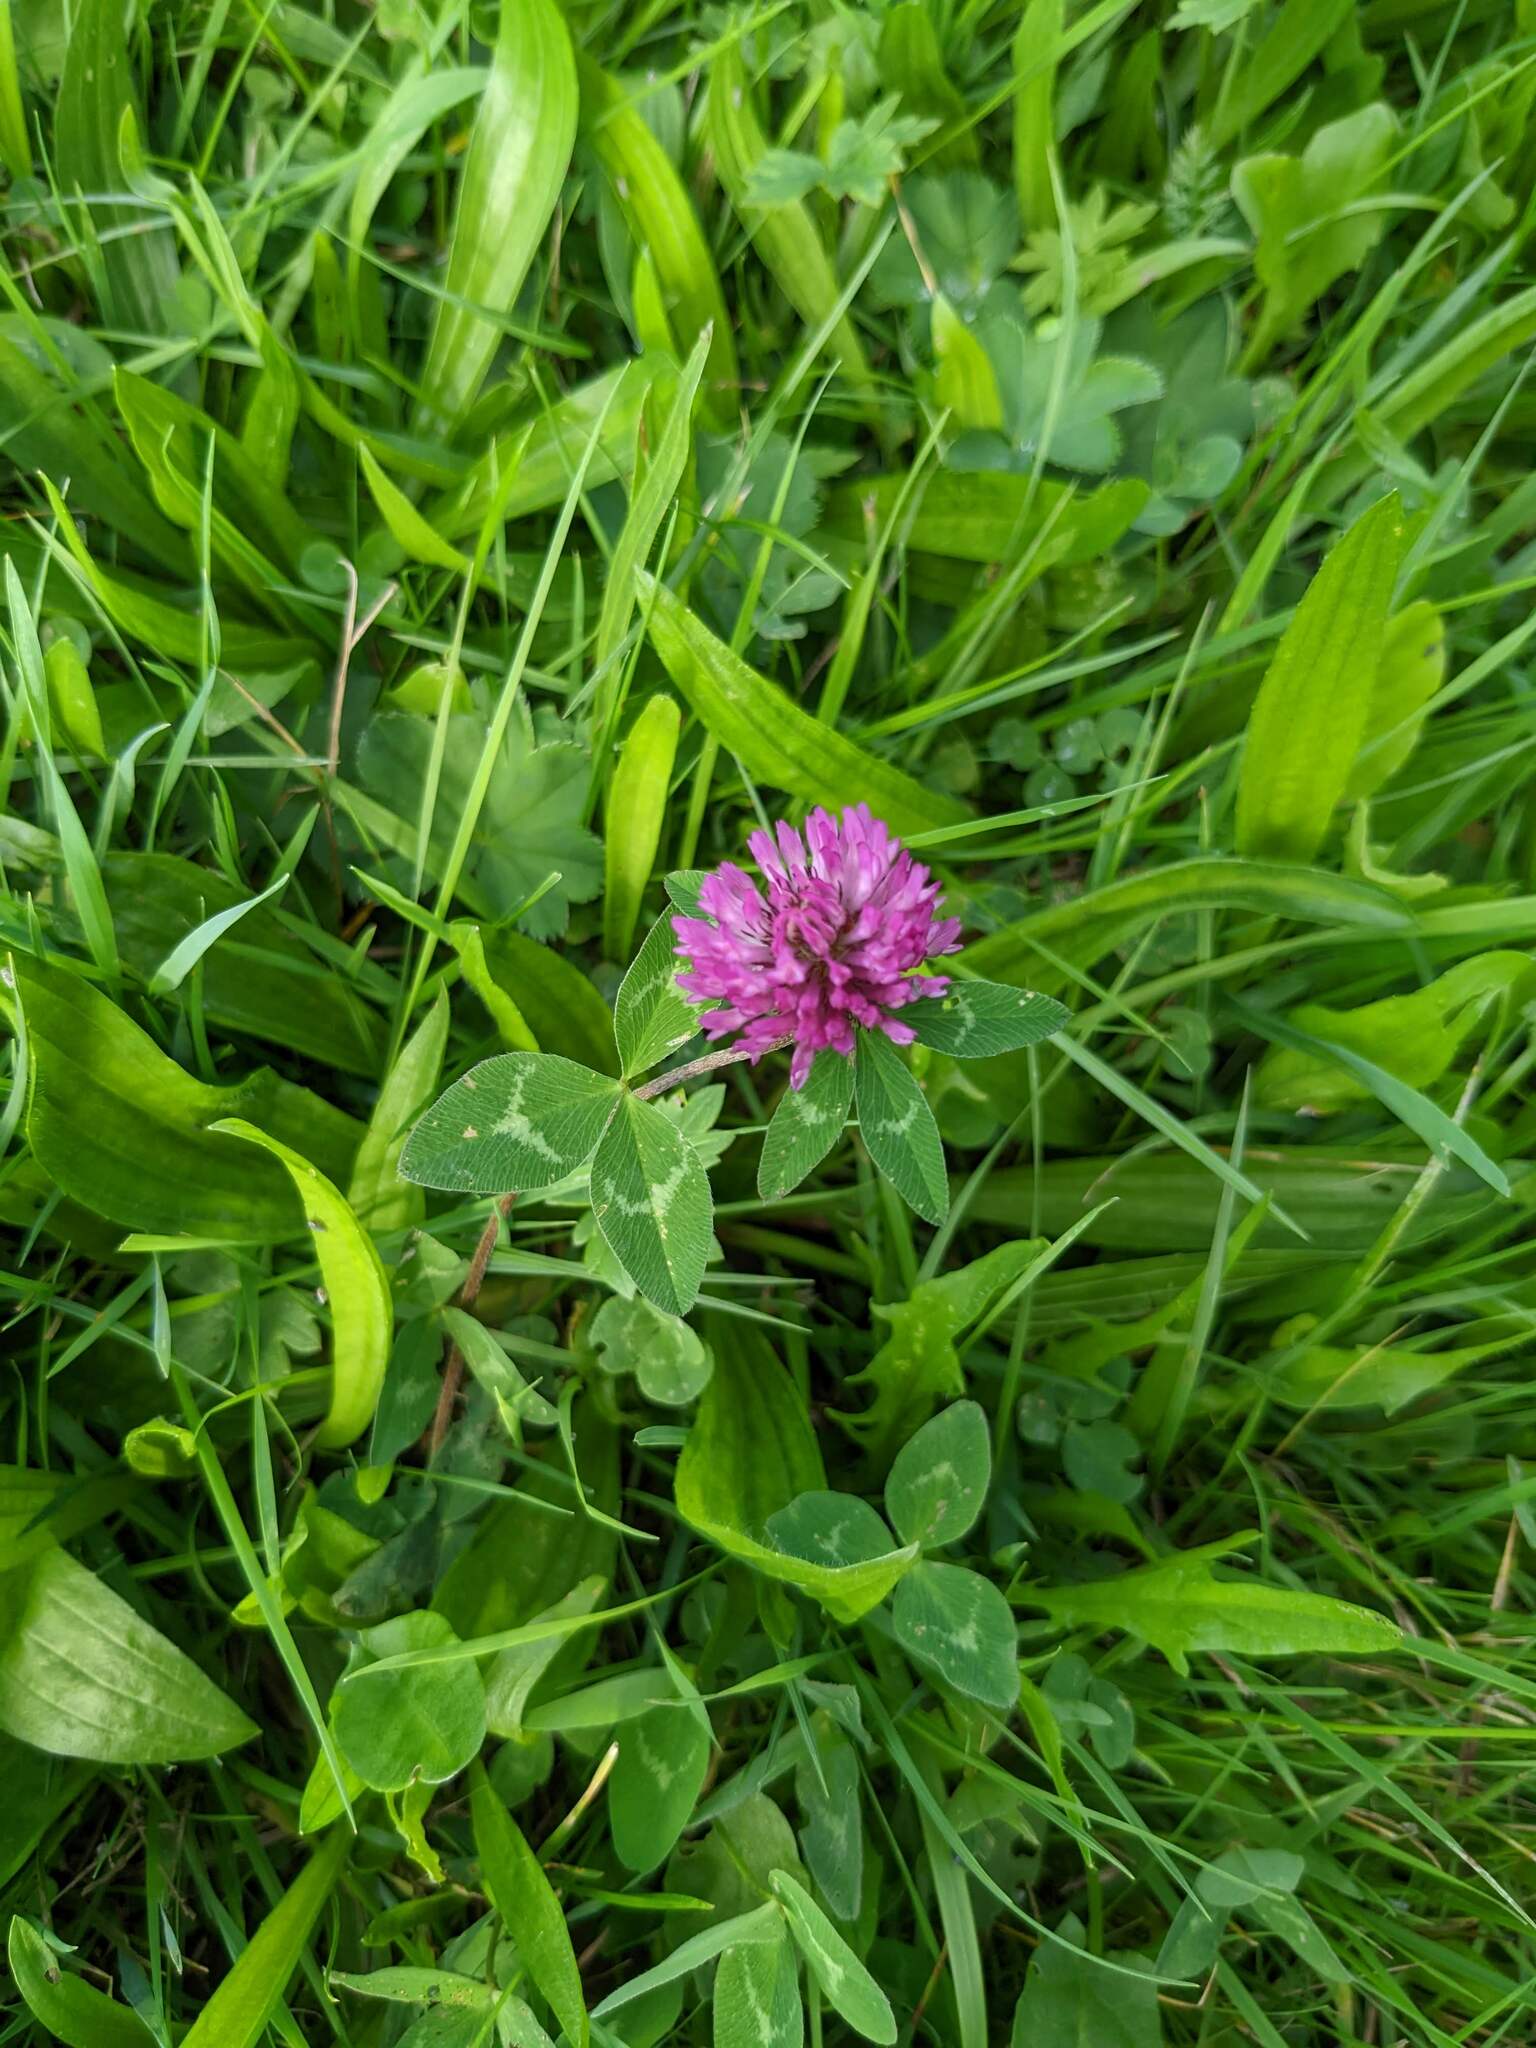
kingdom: Plantae
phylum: Tracheophyta
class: Magnoliopsida
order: Fabales
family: Fabaceae
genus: Trifolium
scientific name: Trifolium pratense
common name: Red clover
